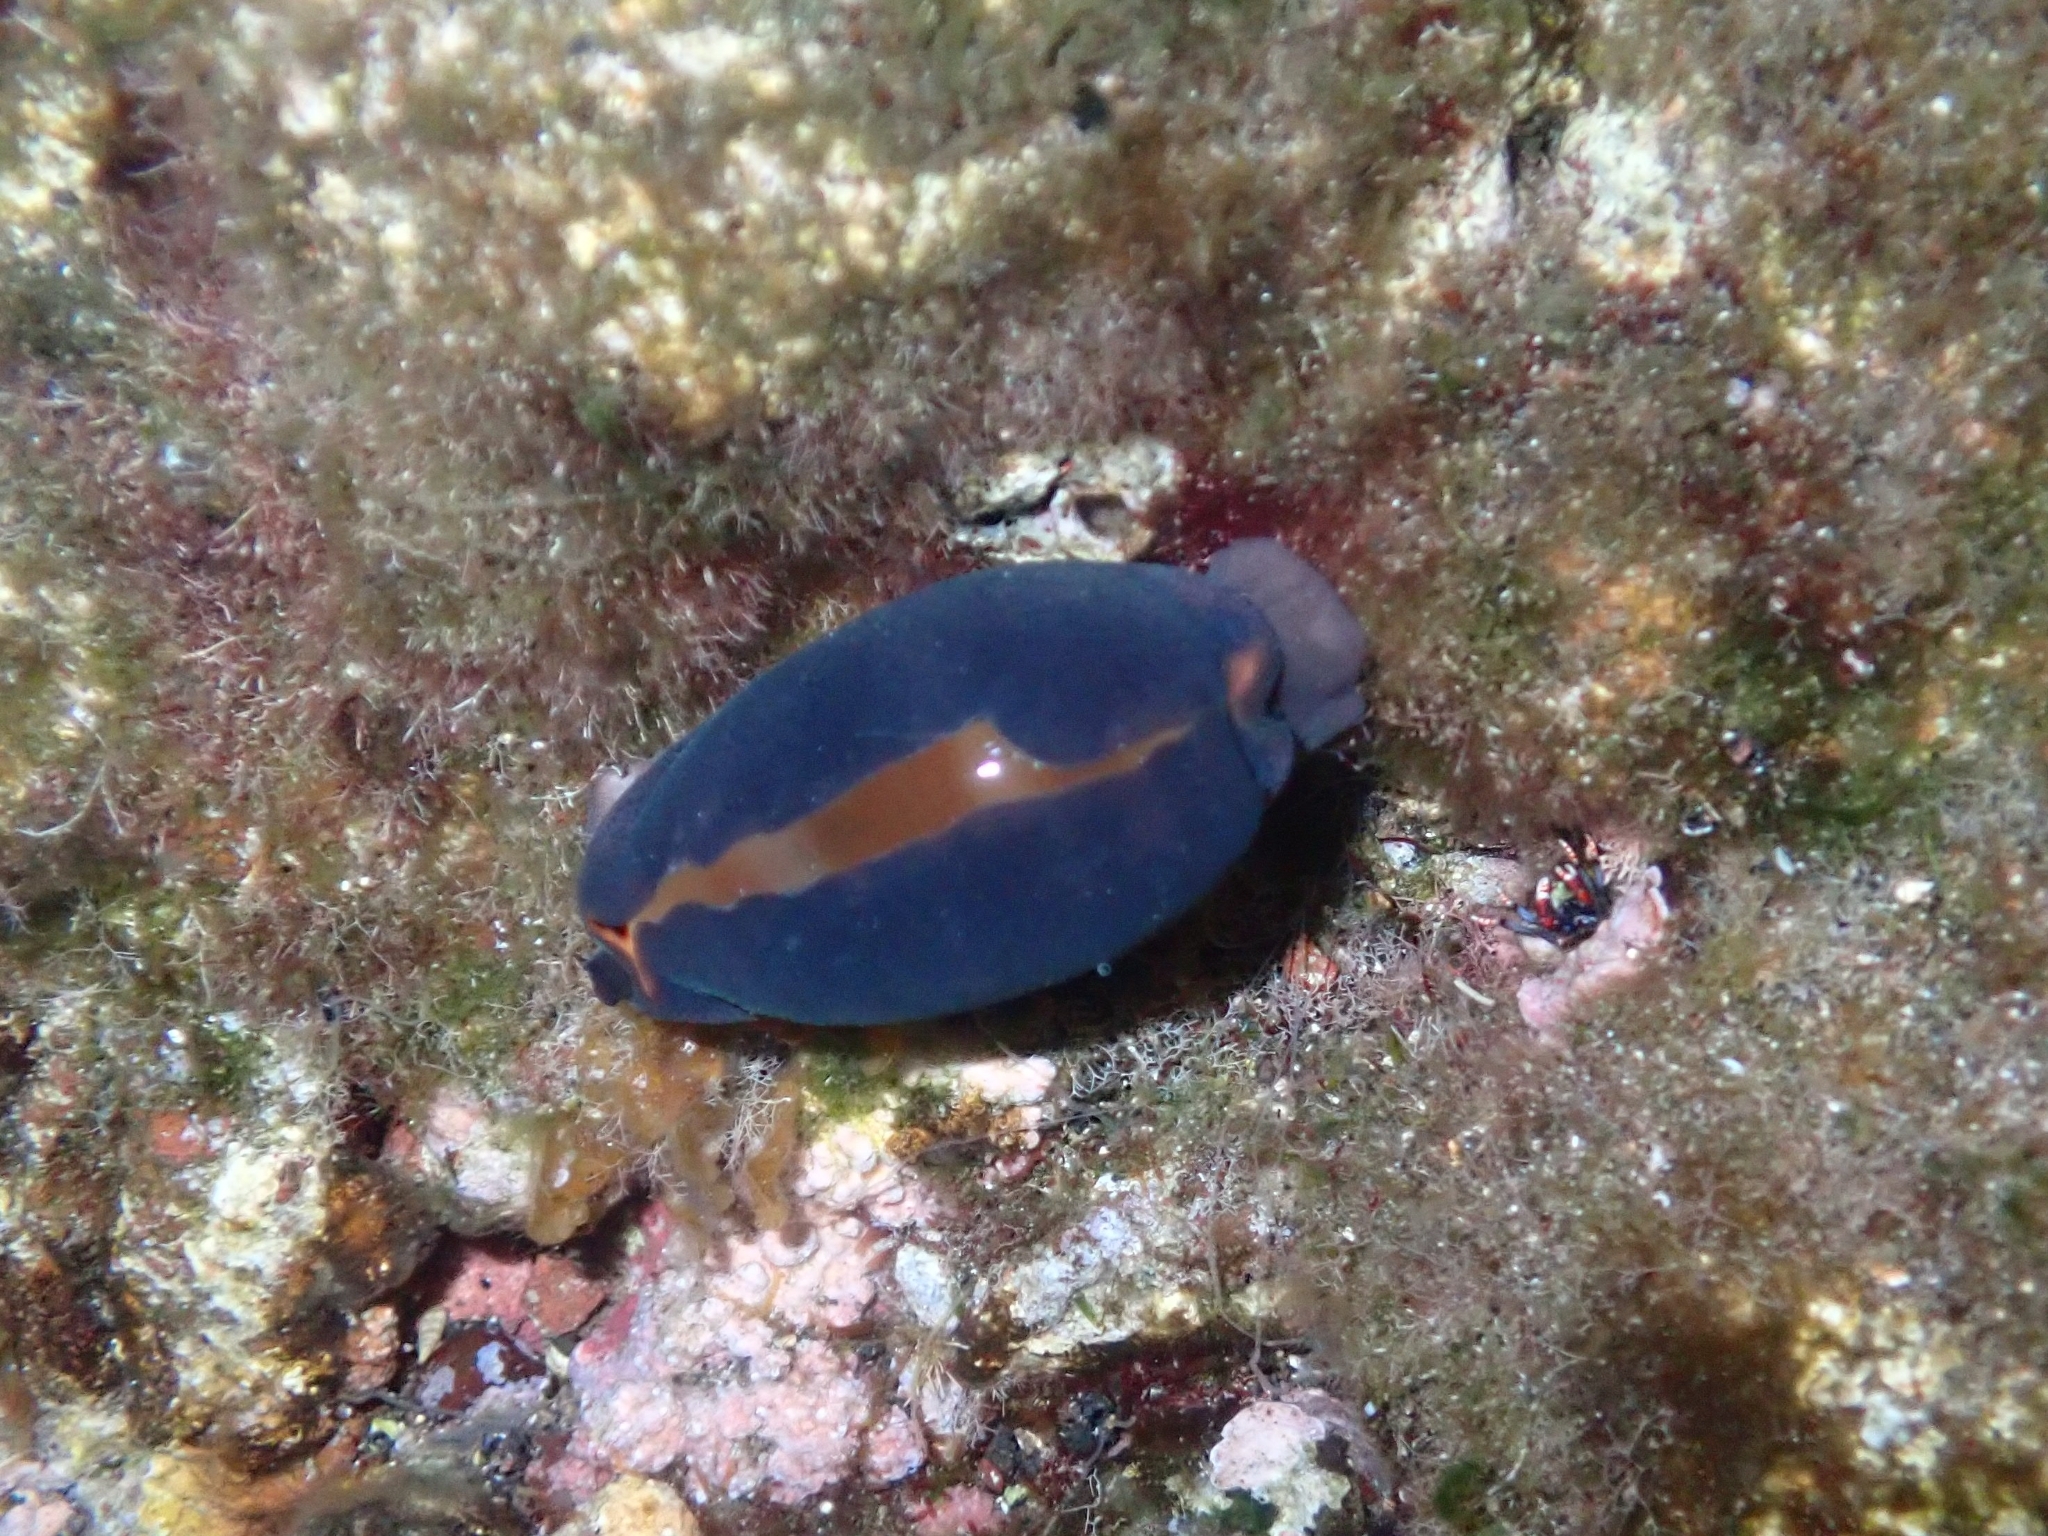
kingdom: Animalia
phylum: Mollusca
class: Gastropoda
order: Littorinimorpha
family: Cypraeidae
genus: Luria
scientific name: Luria lurida
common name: Brown cowry
